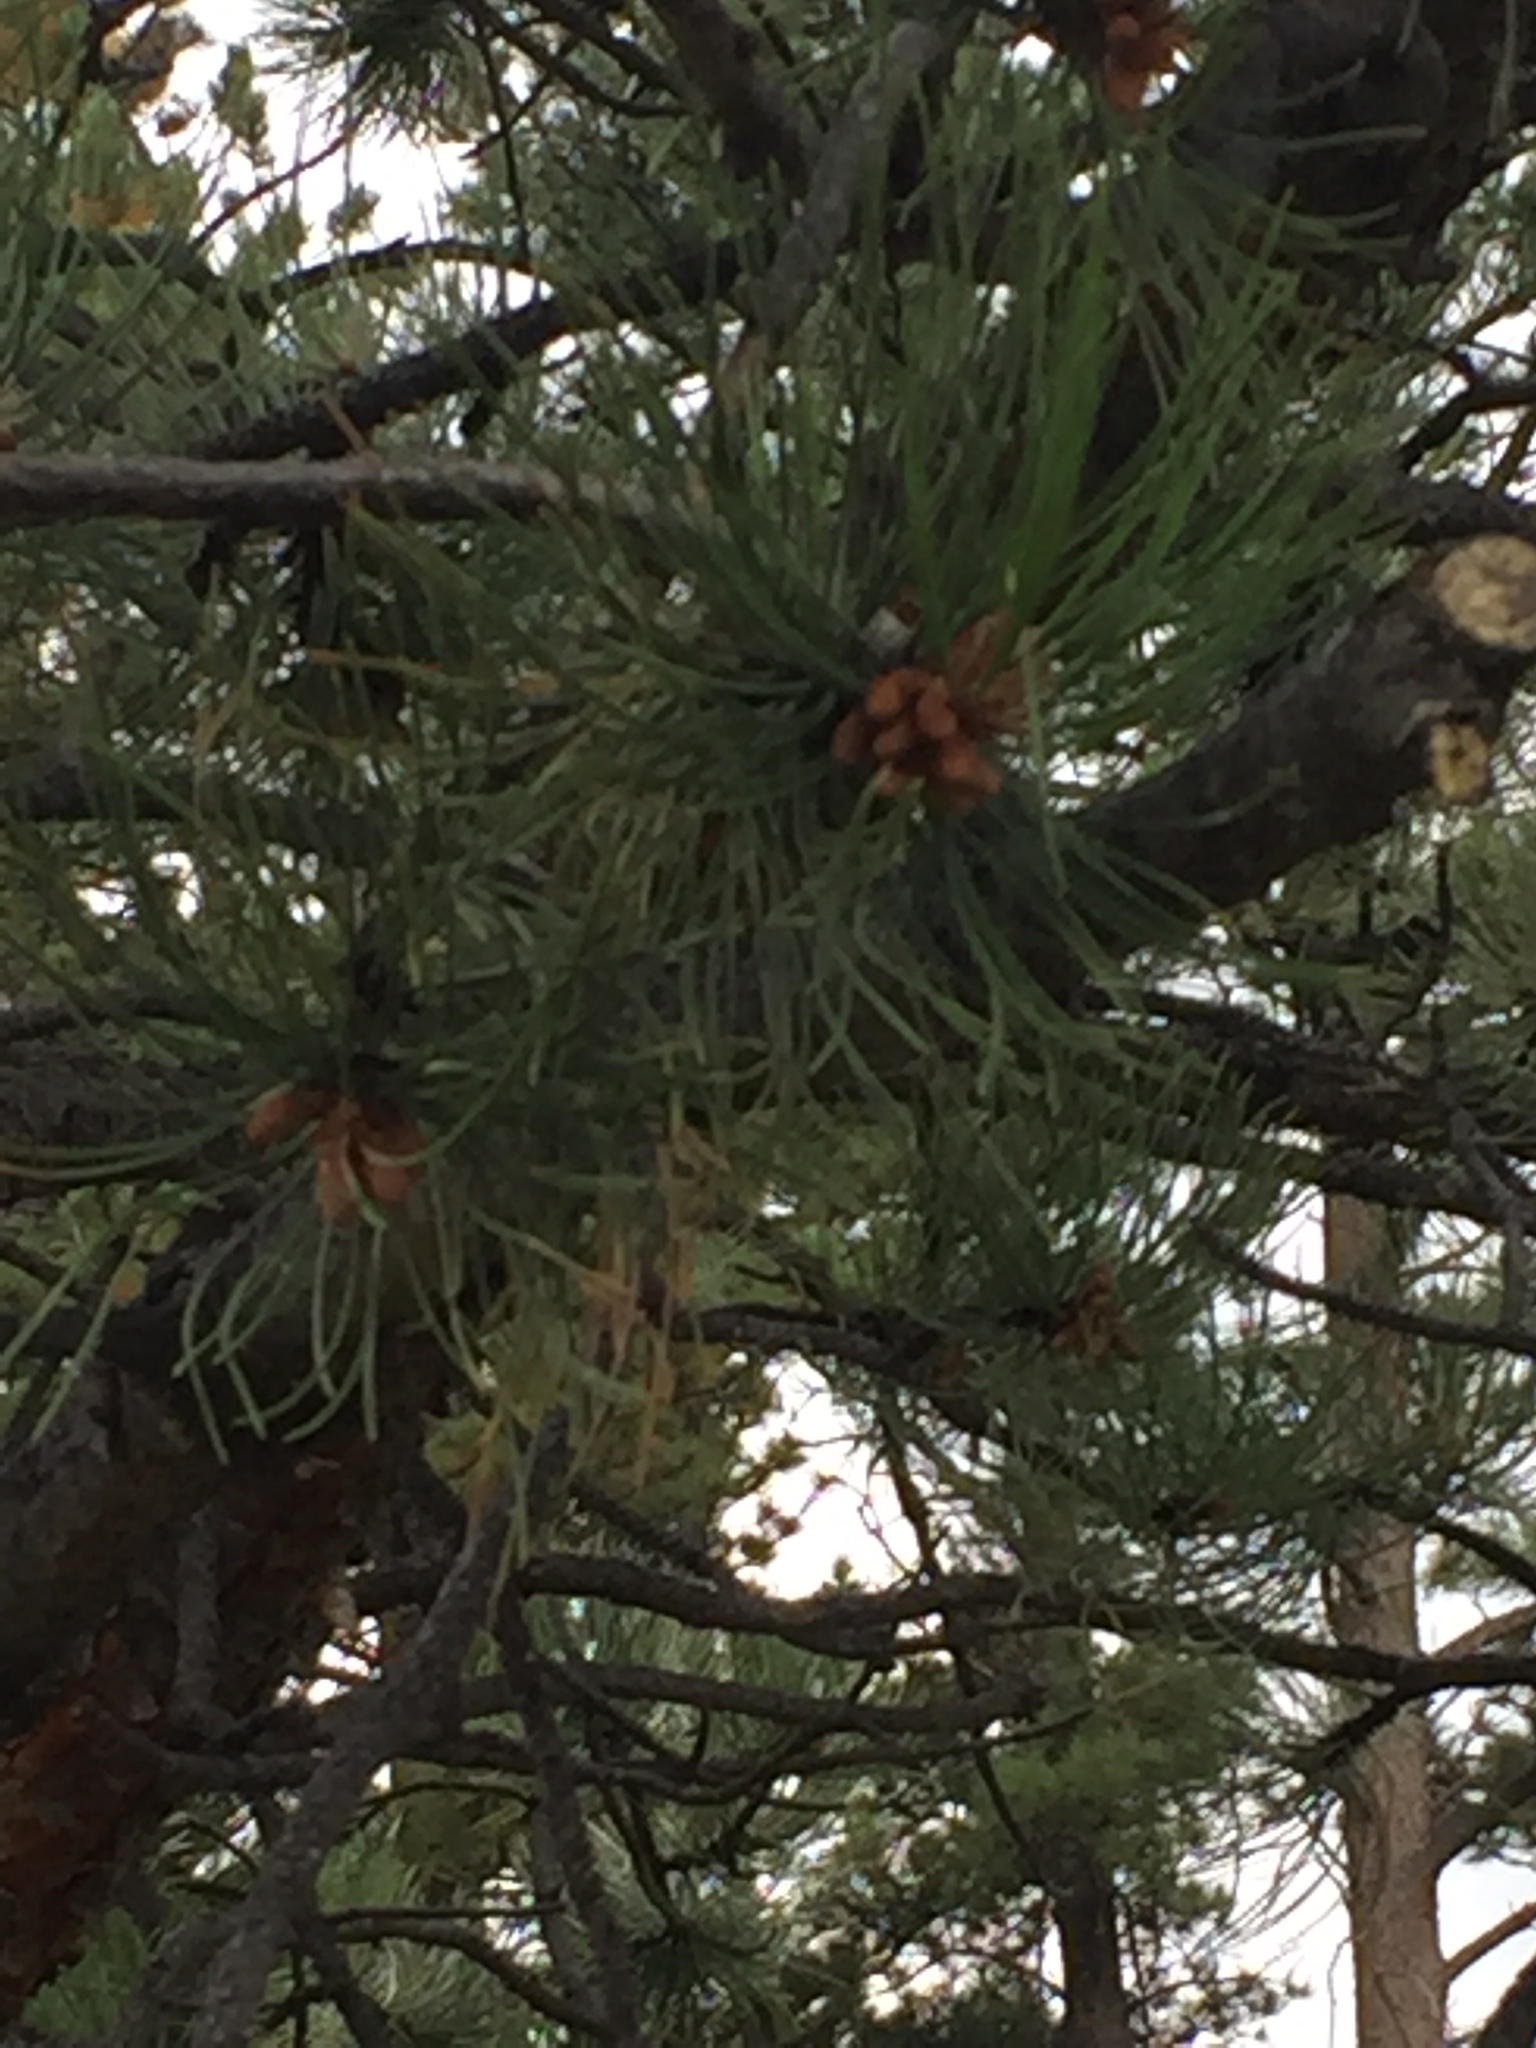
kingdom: Plantae
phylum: Tracheophyta
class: Pinopsida
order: Pinales
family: Pinaceae
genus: Pinus
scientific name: Pinus ponderosa
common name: Western yellow-pine
